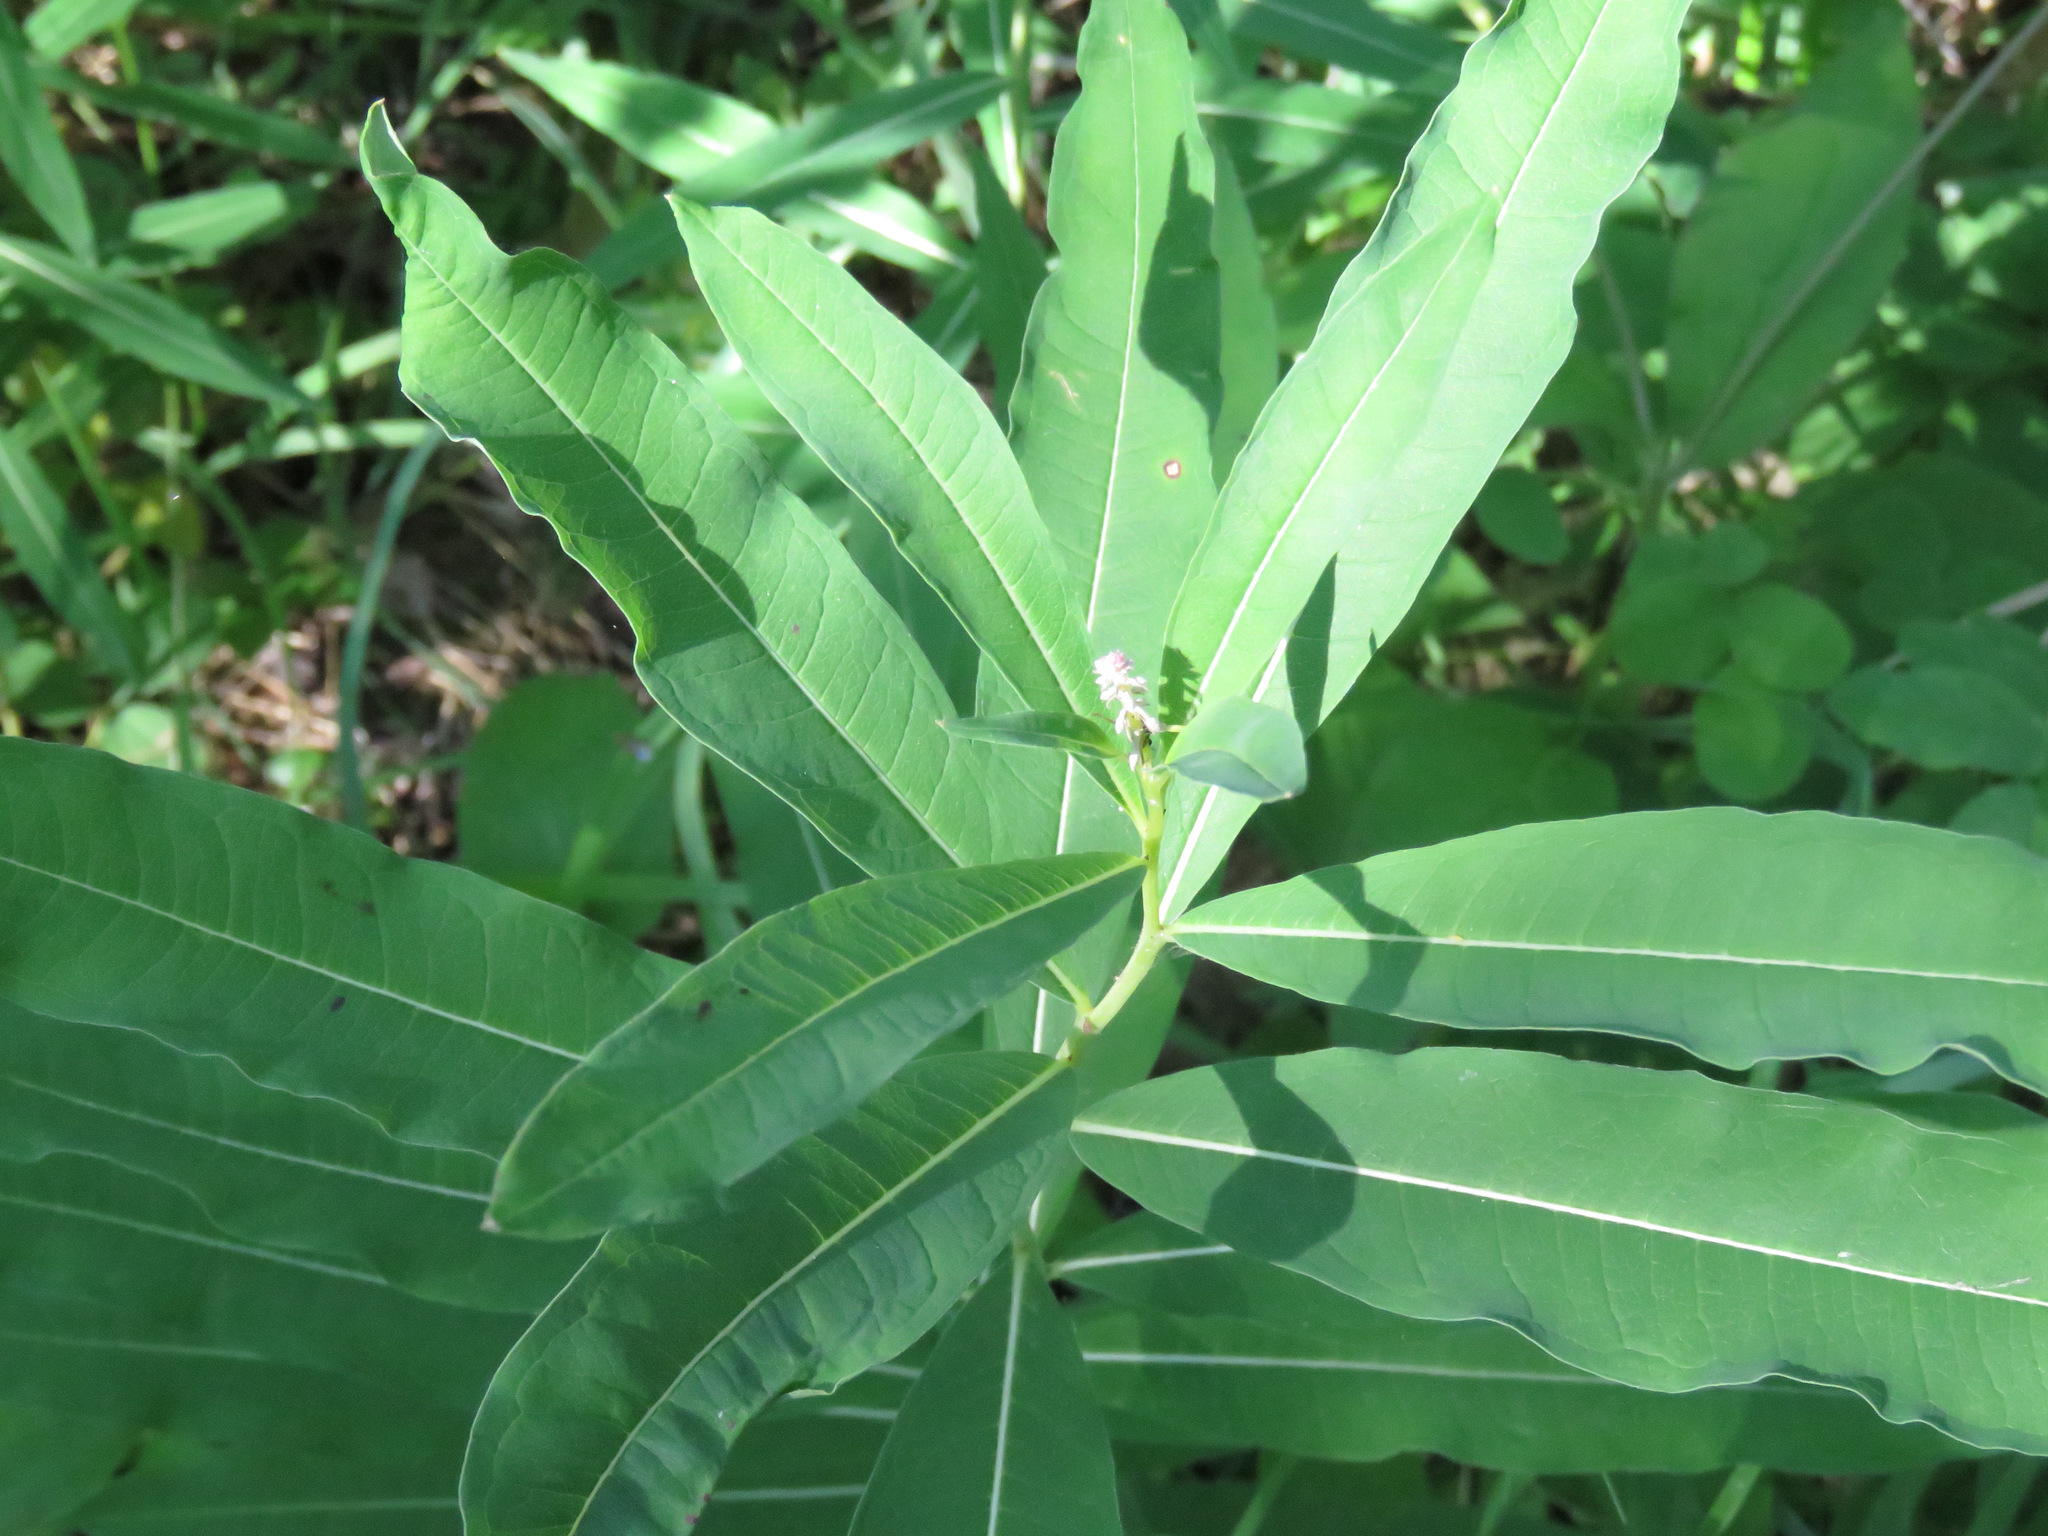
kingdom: Plantae
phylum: Tracheophyta
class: Magnoliopsida
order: Myrtales
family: Onagraceae
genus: Chamaenerion
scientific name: Chamaenerion angustifolium
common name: Fireweed
